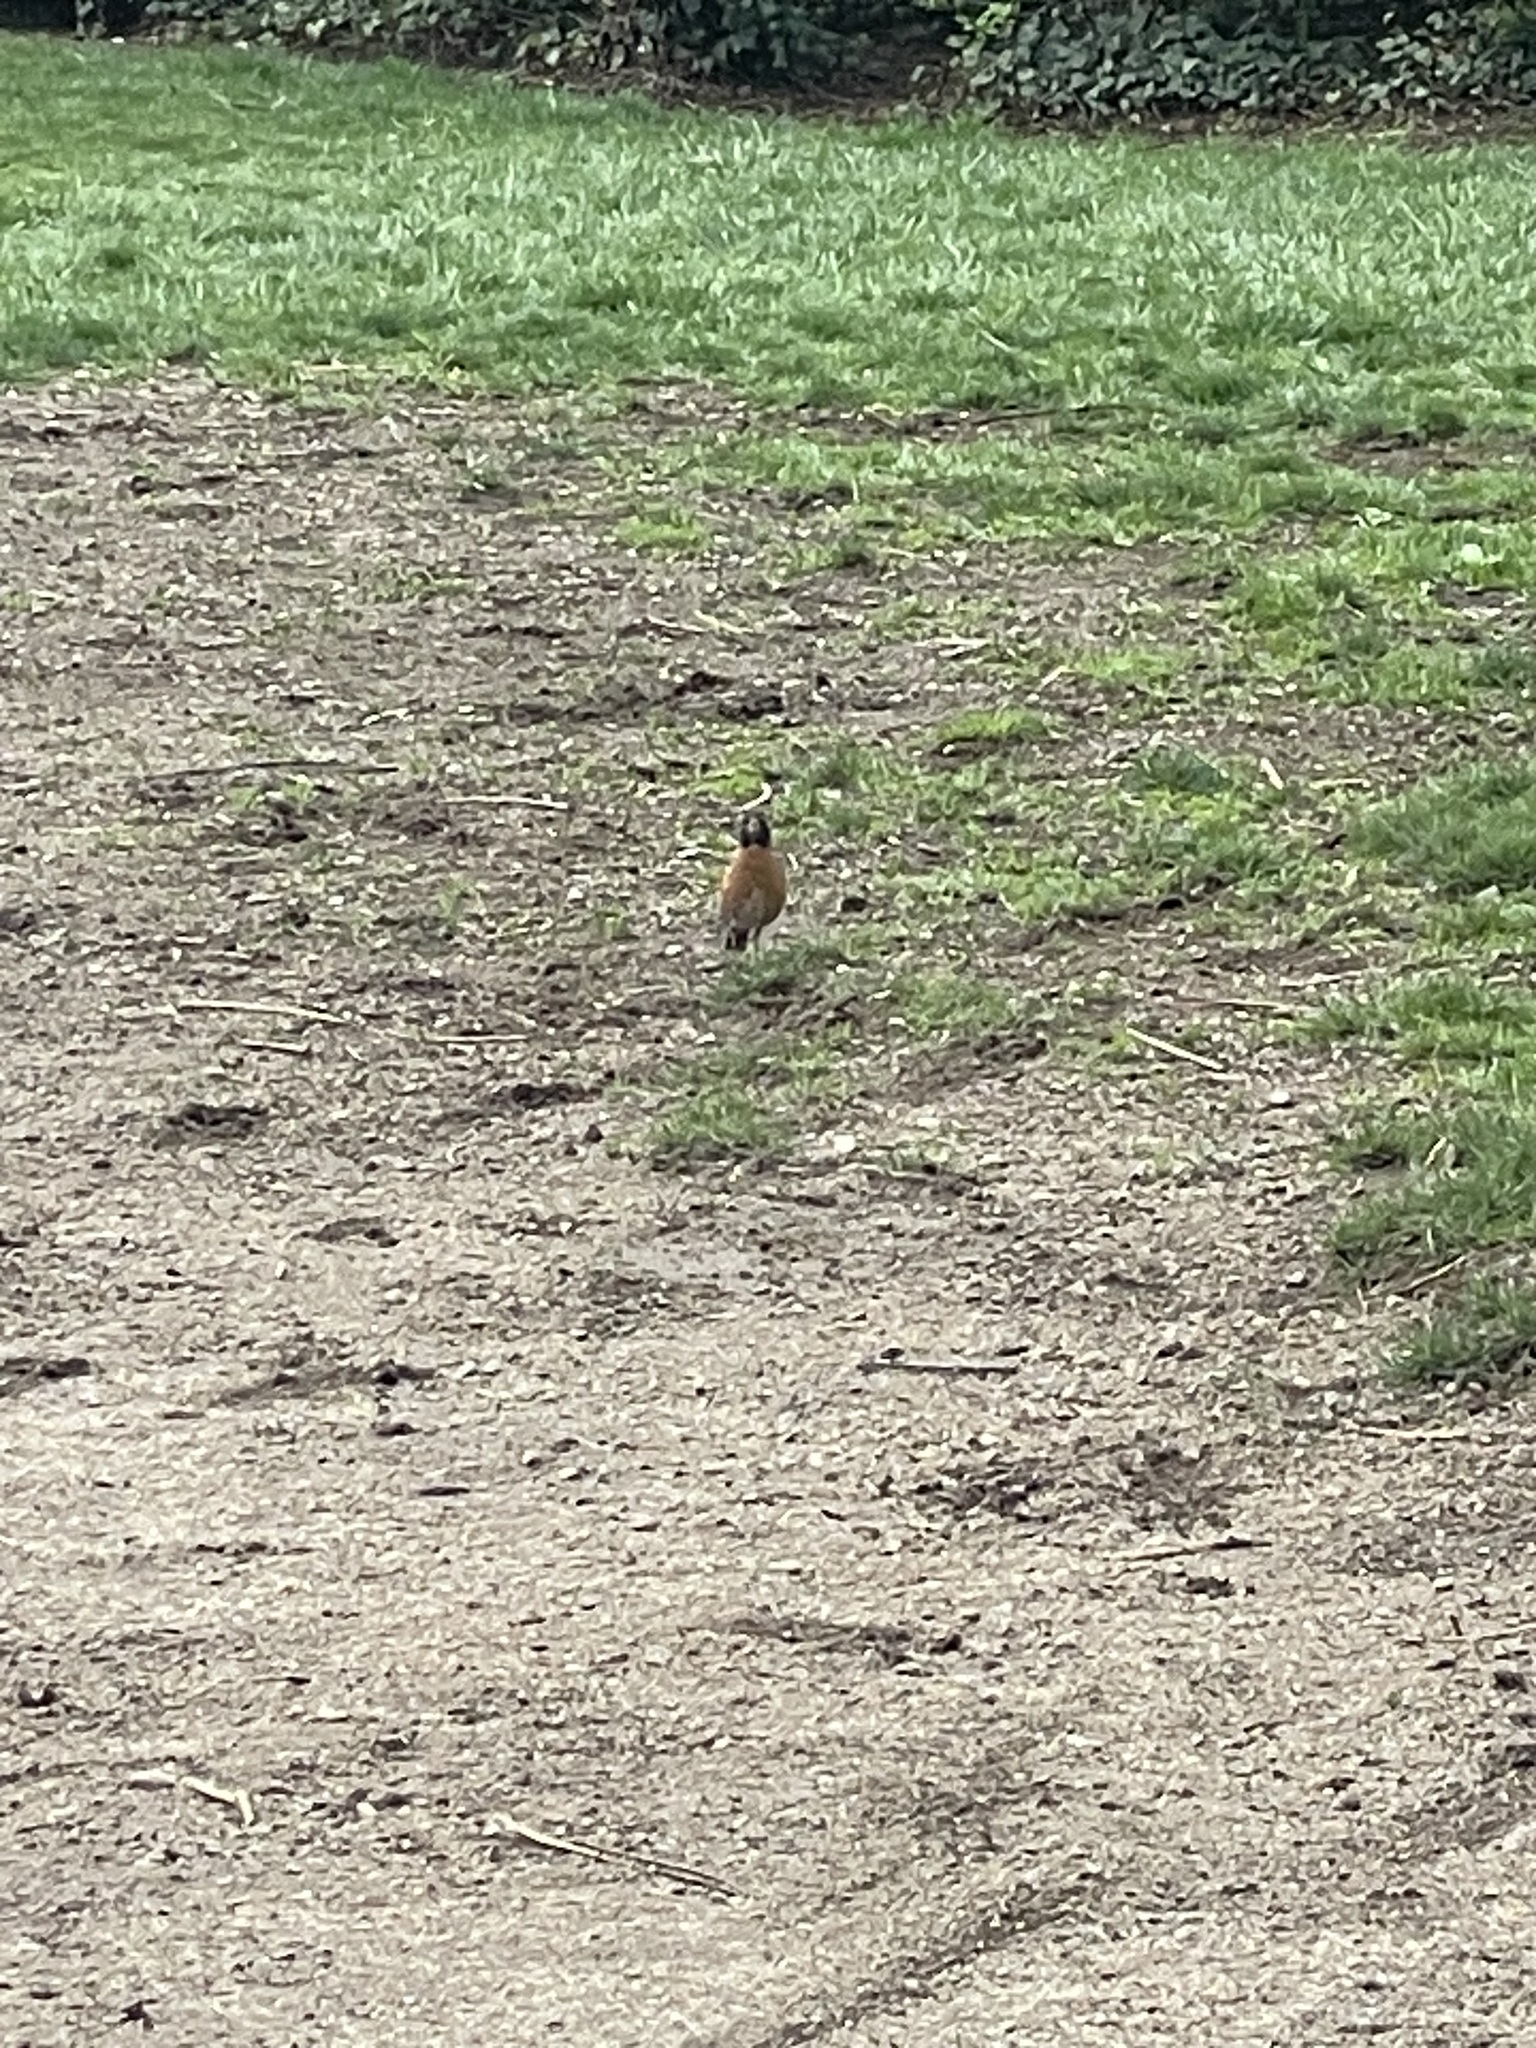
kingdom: Animalia
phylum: Chordata
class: Aves
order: Passeriformes
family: Turdidae
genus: Turdus
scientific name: Turdus migratorius
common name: American robin
